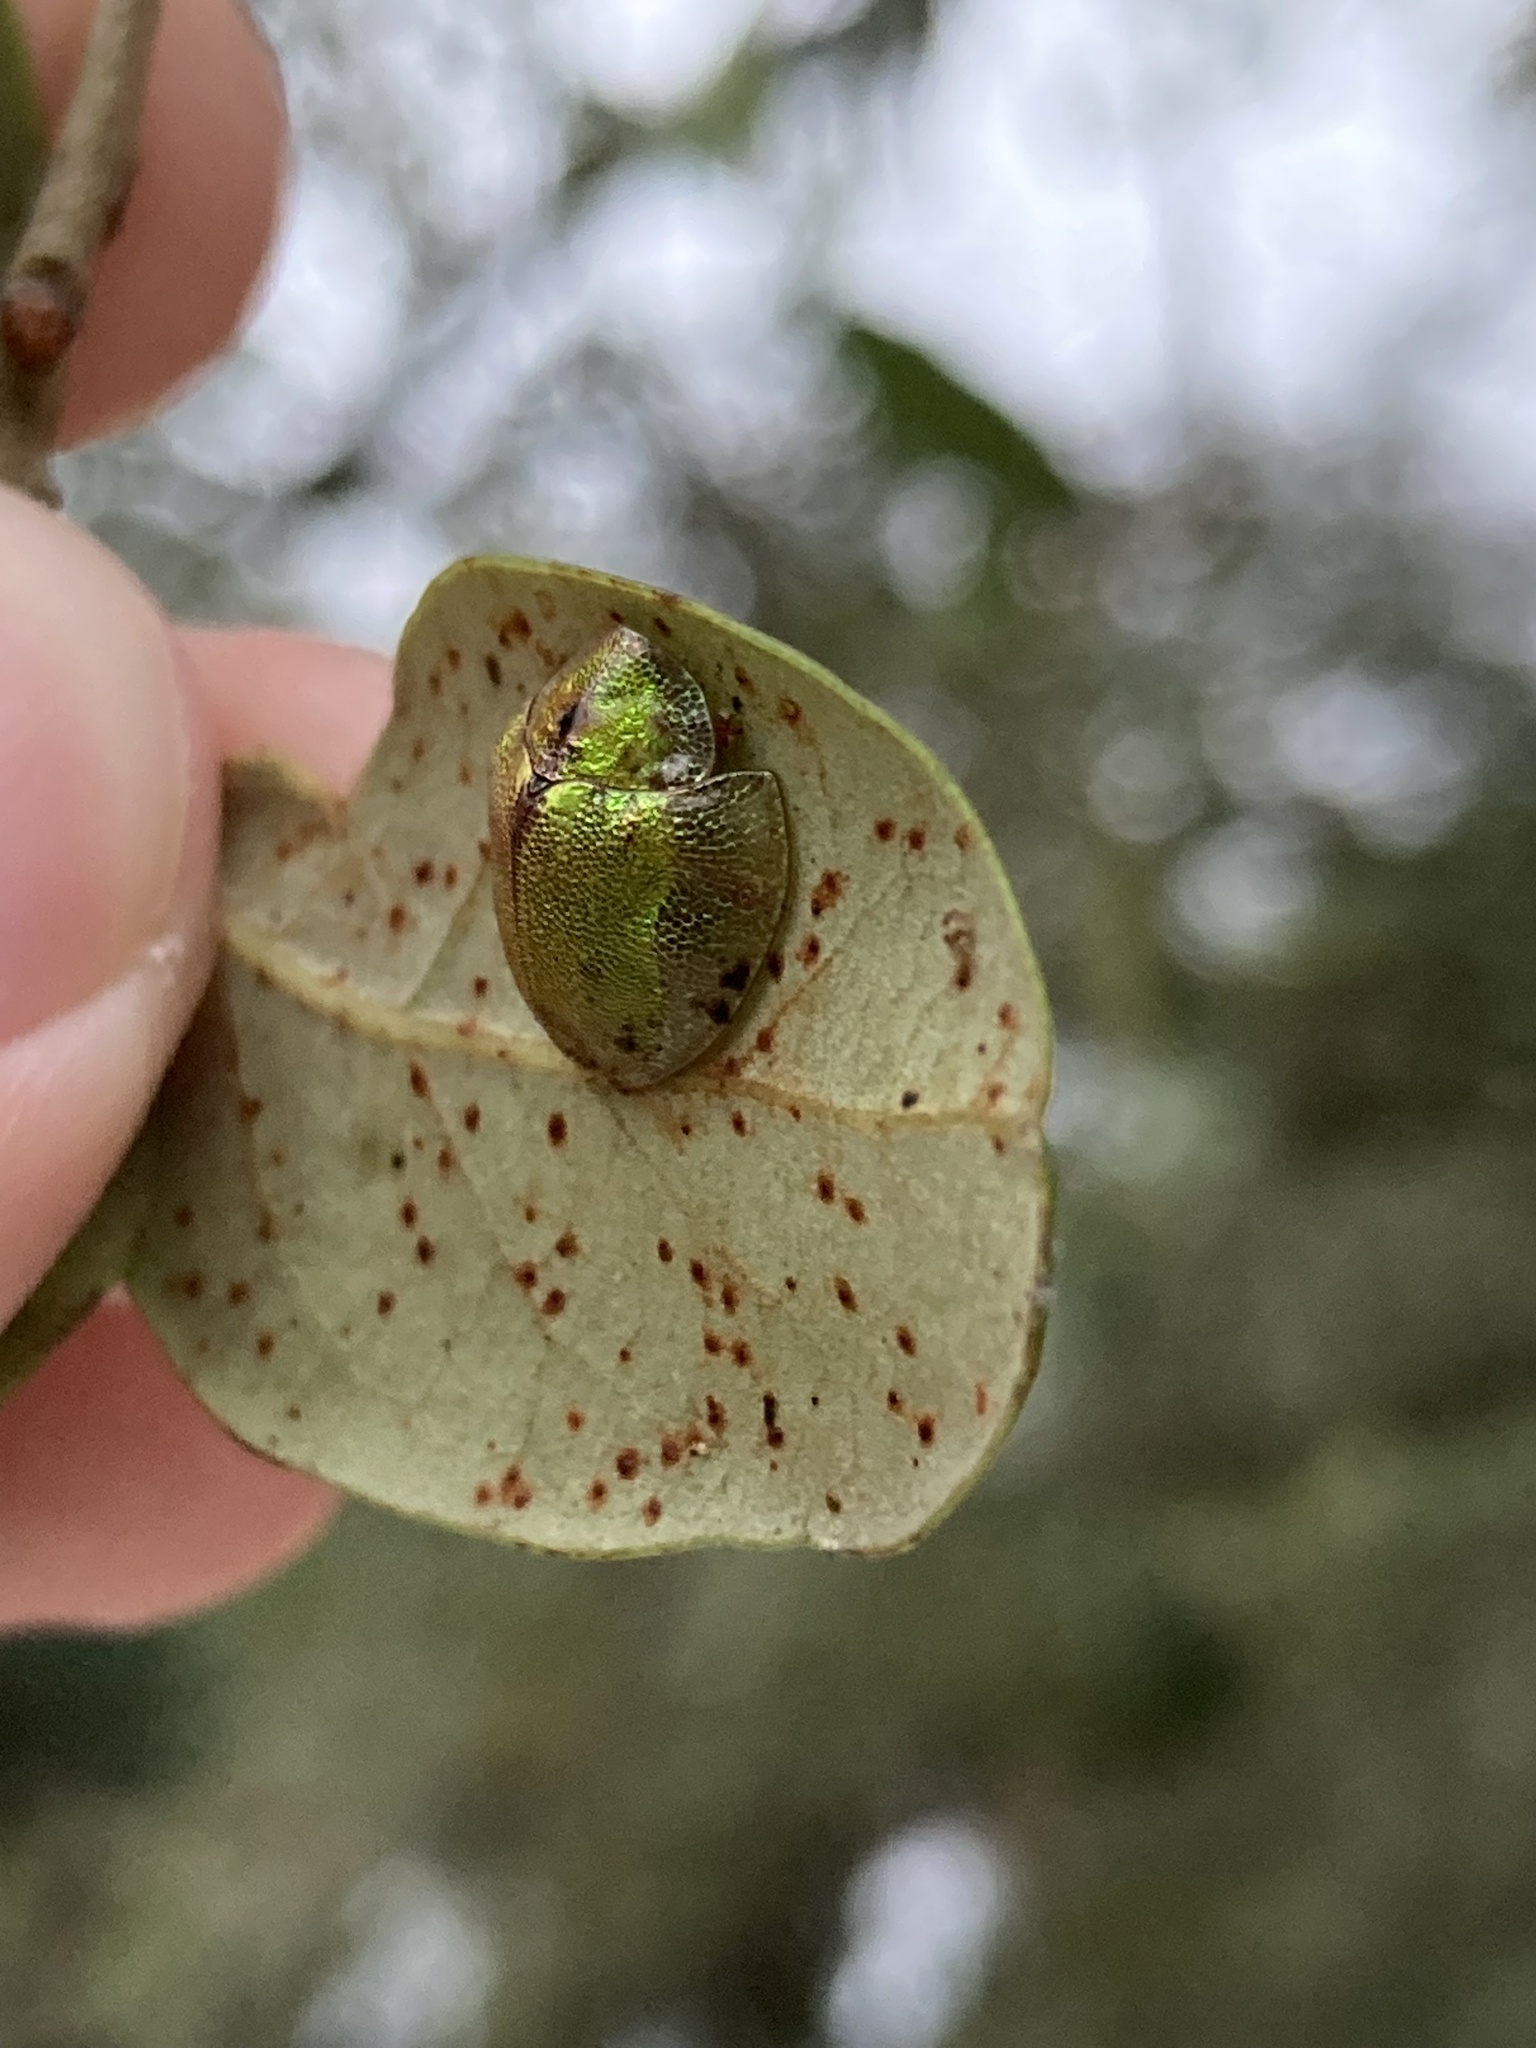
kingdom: Animalia
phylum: Arthropoda
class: Insecta
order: Coleoptera
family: Chrysomelidae
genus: Eurypepla
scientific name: Eurypepla calochroma
